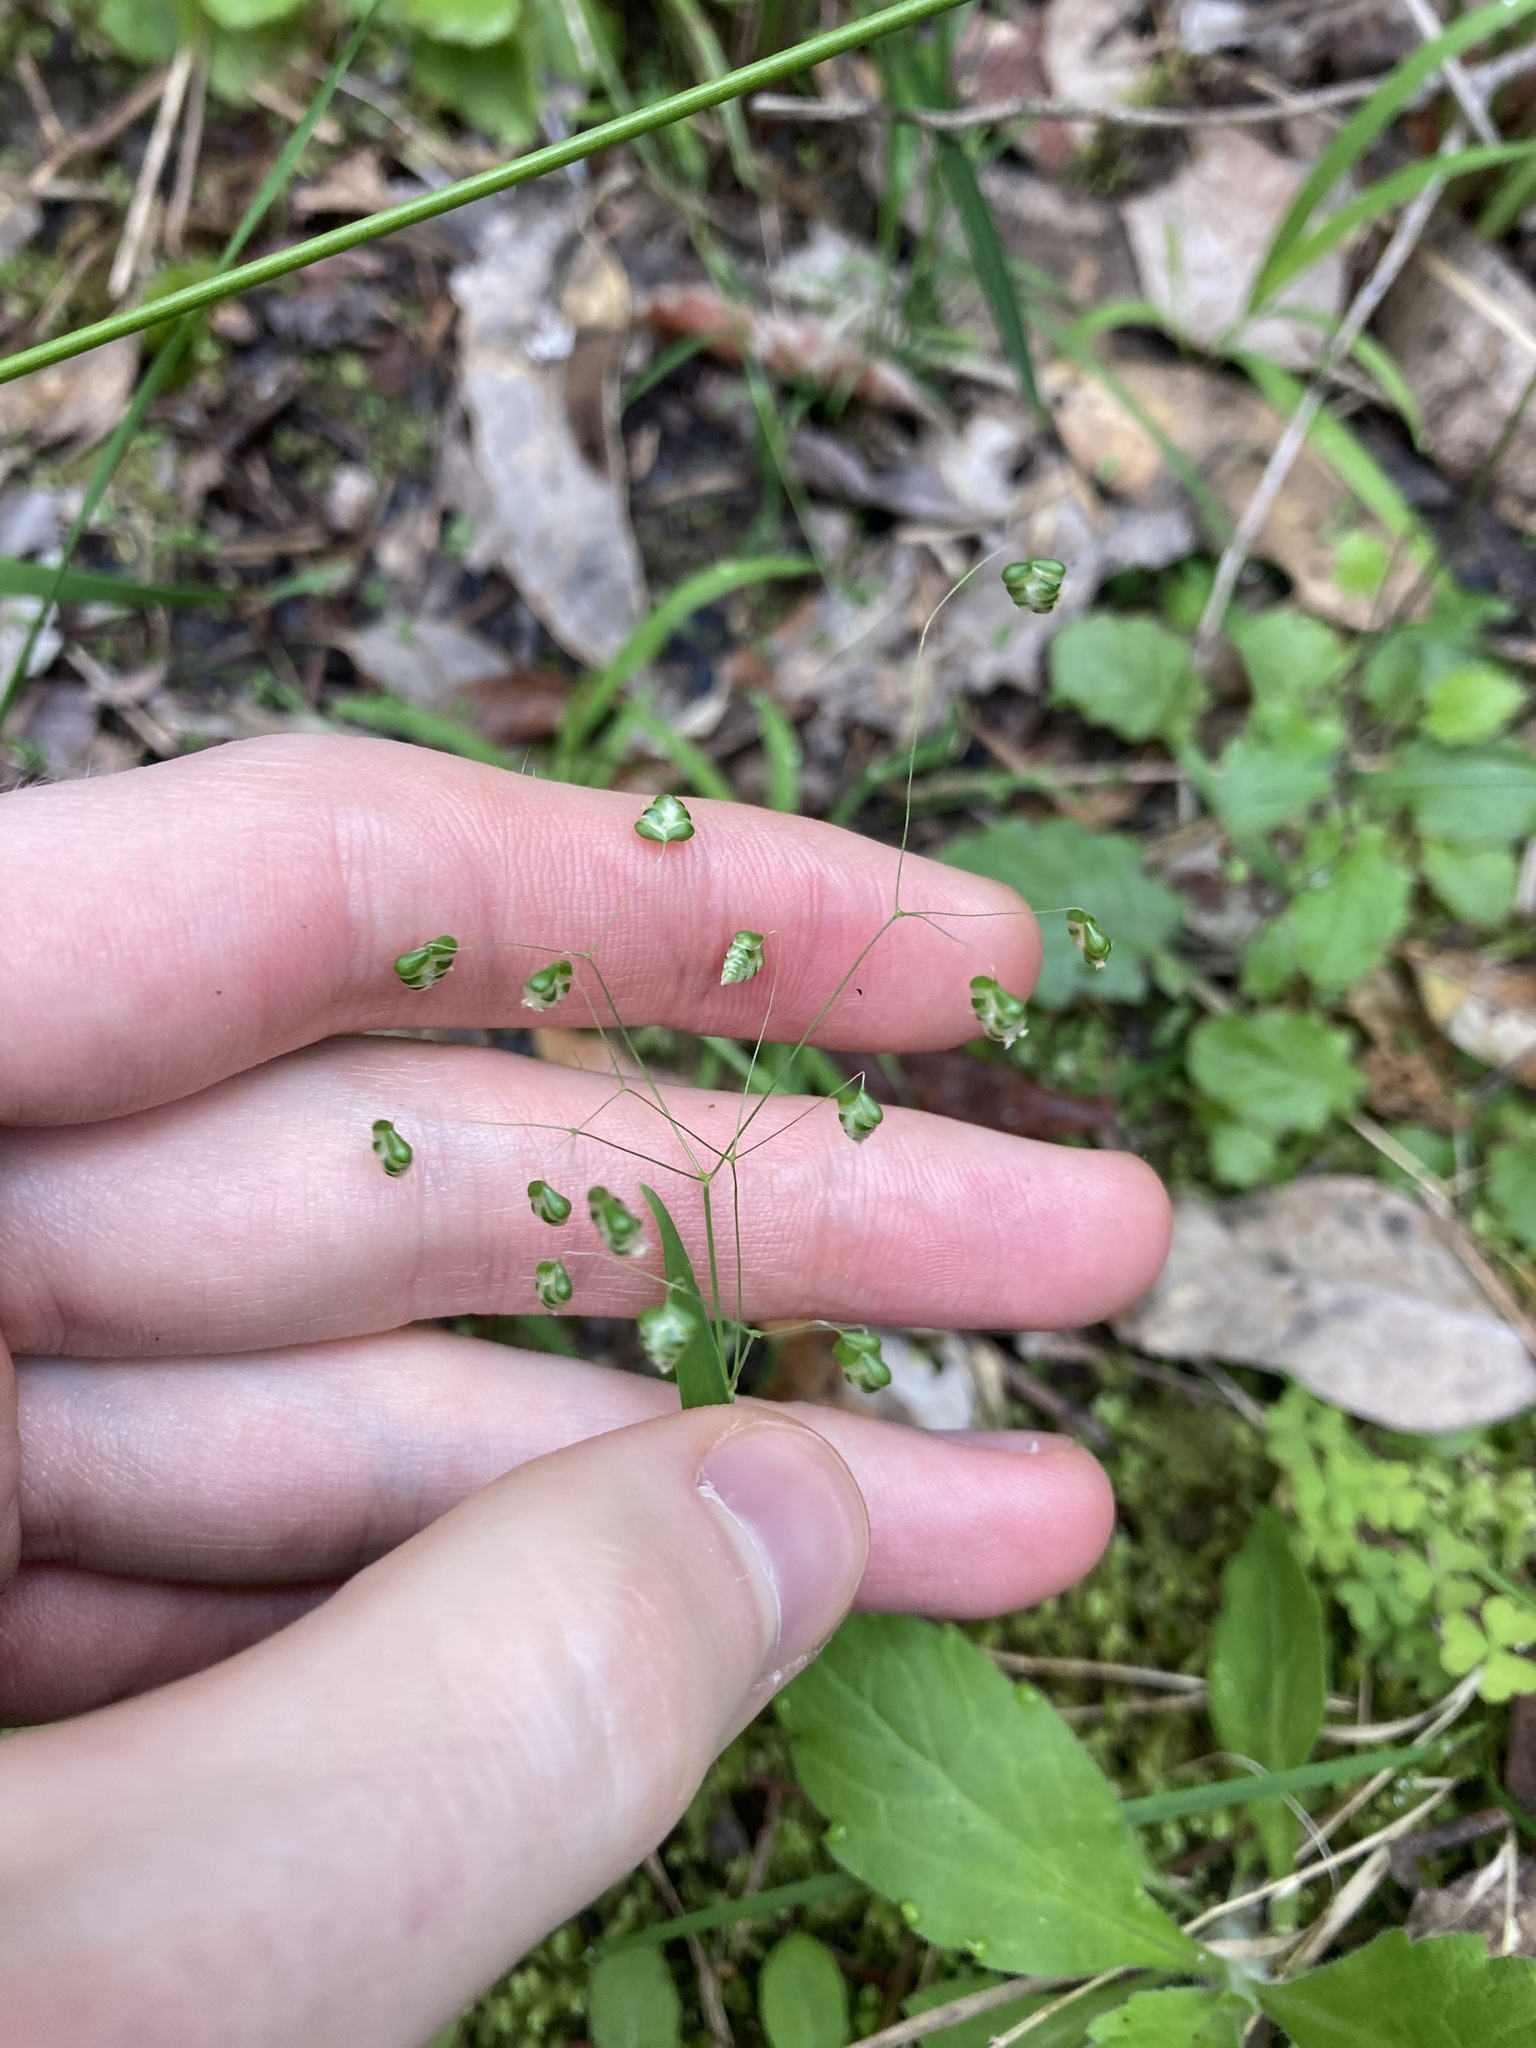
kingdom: Plantae
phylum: Tracheophyta
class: Liliopsida
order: Poales
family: Poaceae
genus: Briza
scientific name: Briza minor
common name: Lesser quaking-grass
